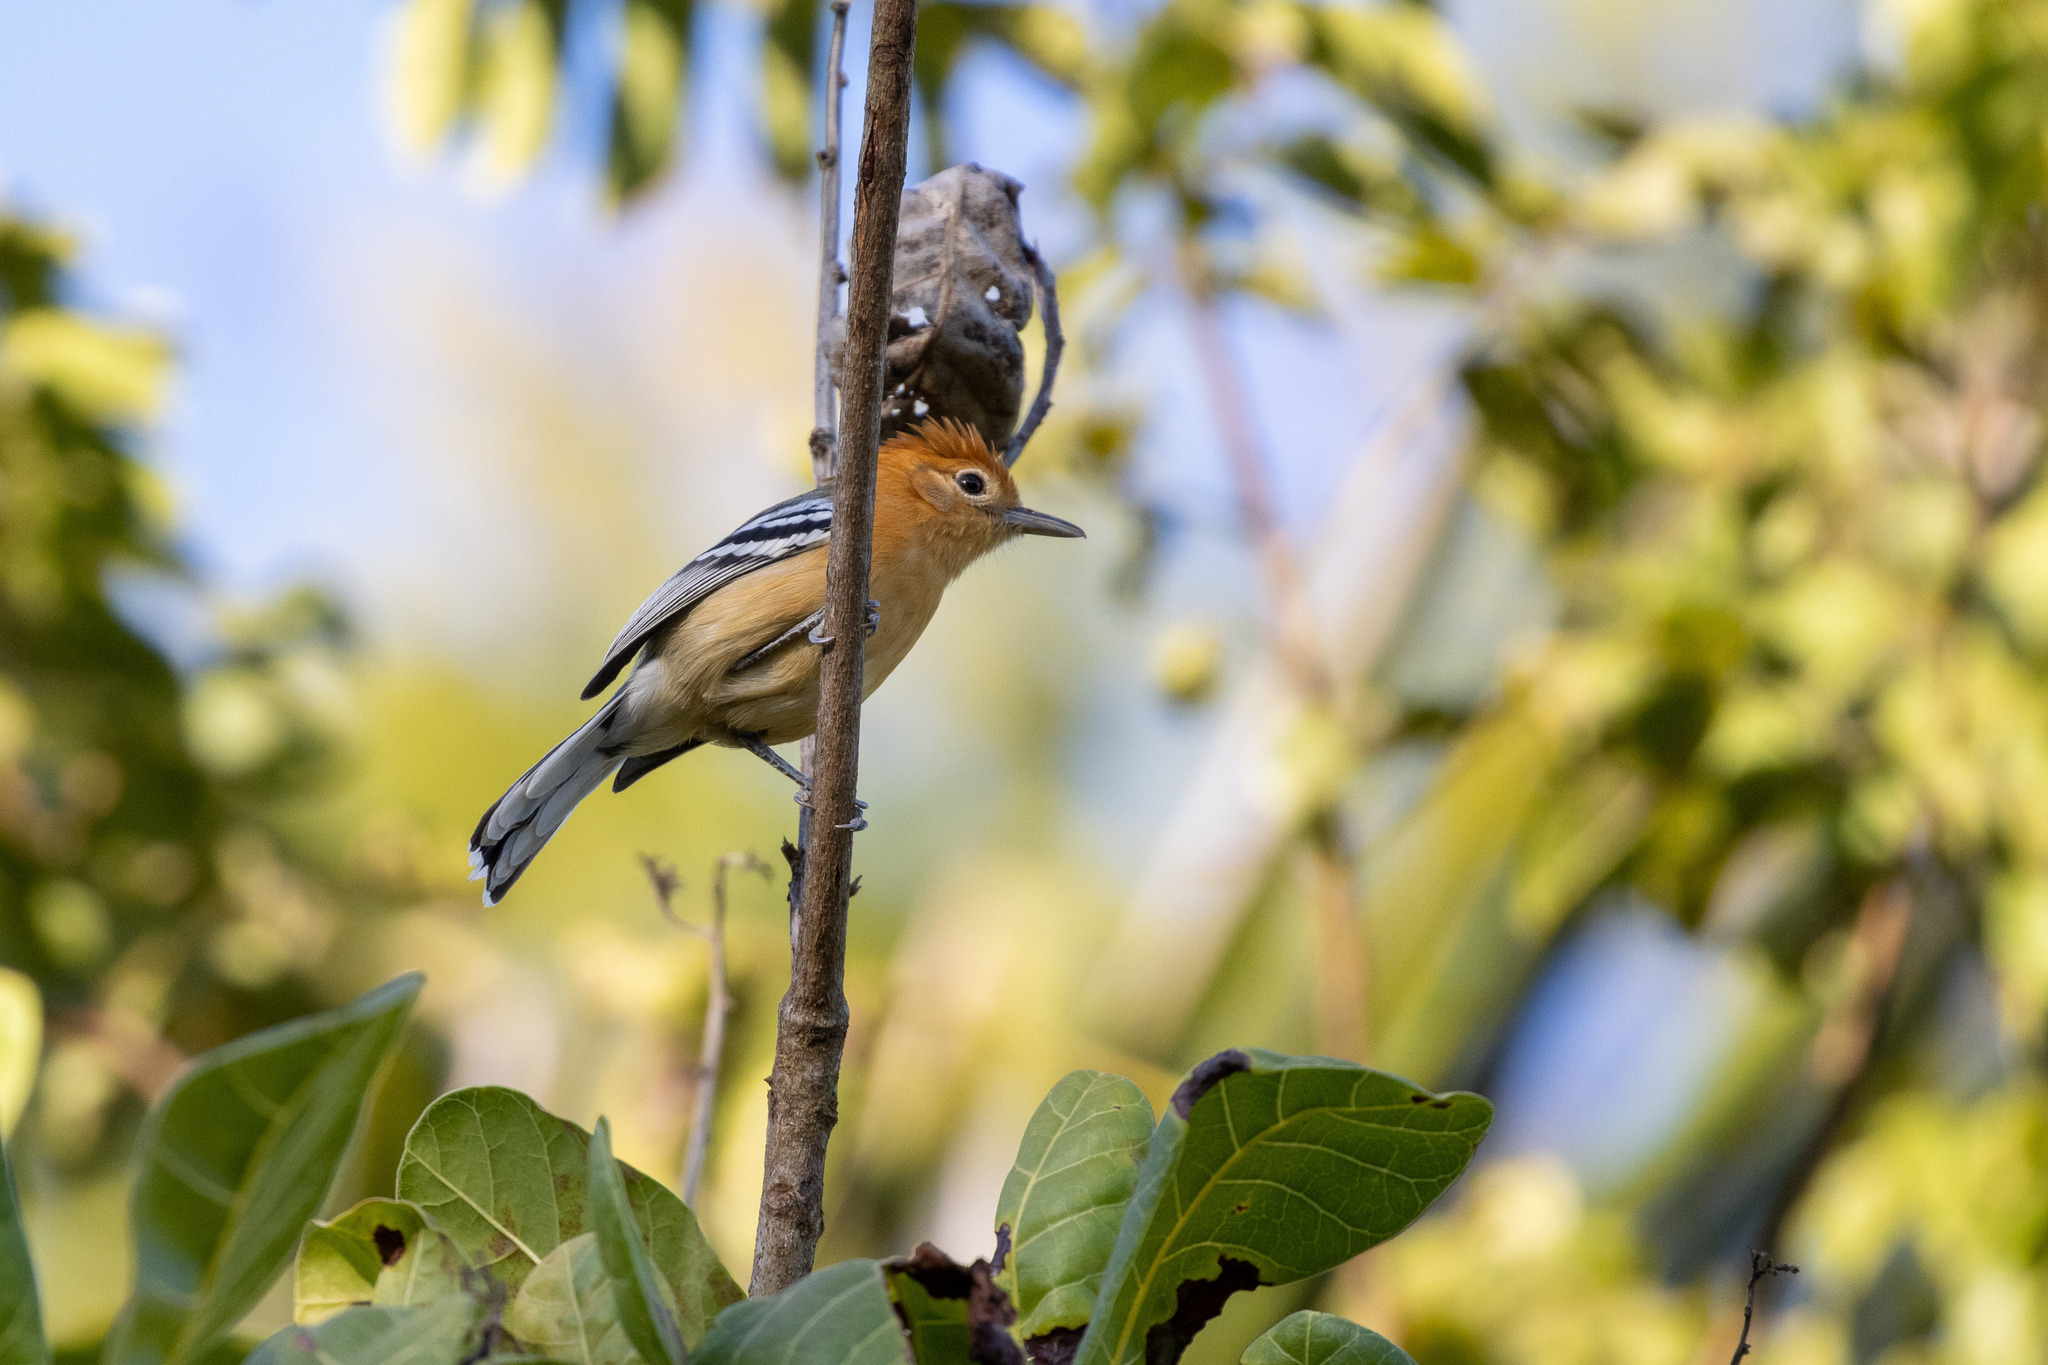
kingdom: Animalia
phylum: Chordata
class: Aves
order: Passeriformes
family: Thamnophilidae
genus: Herpsilochmus
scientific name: Herpsilochmus longirostris
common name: Large-billed antwren
